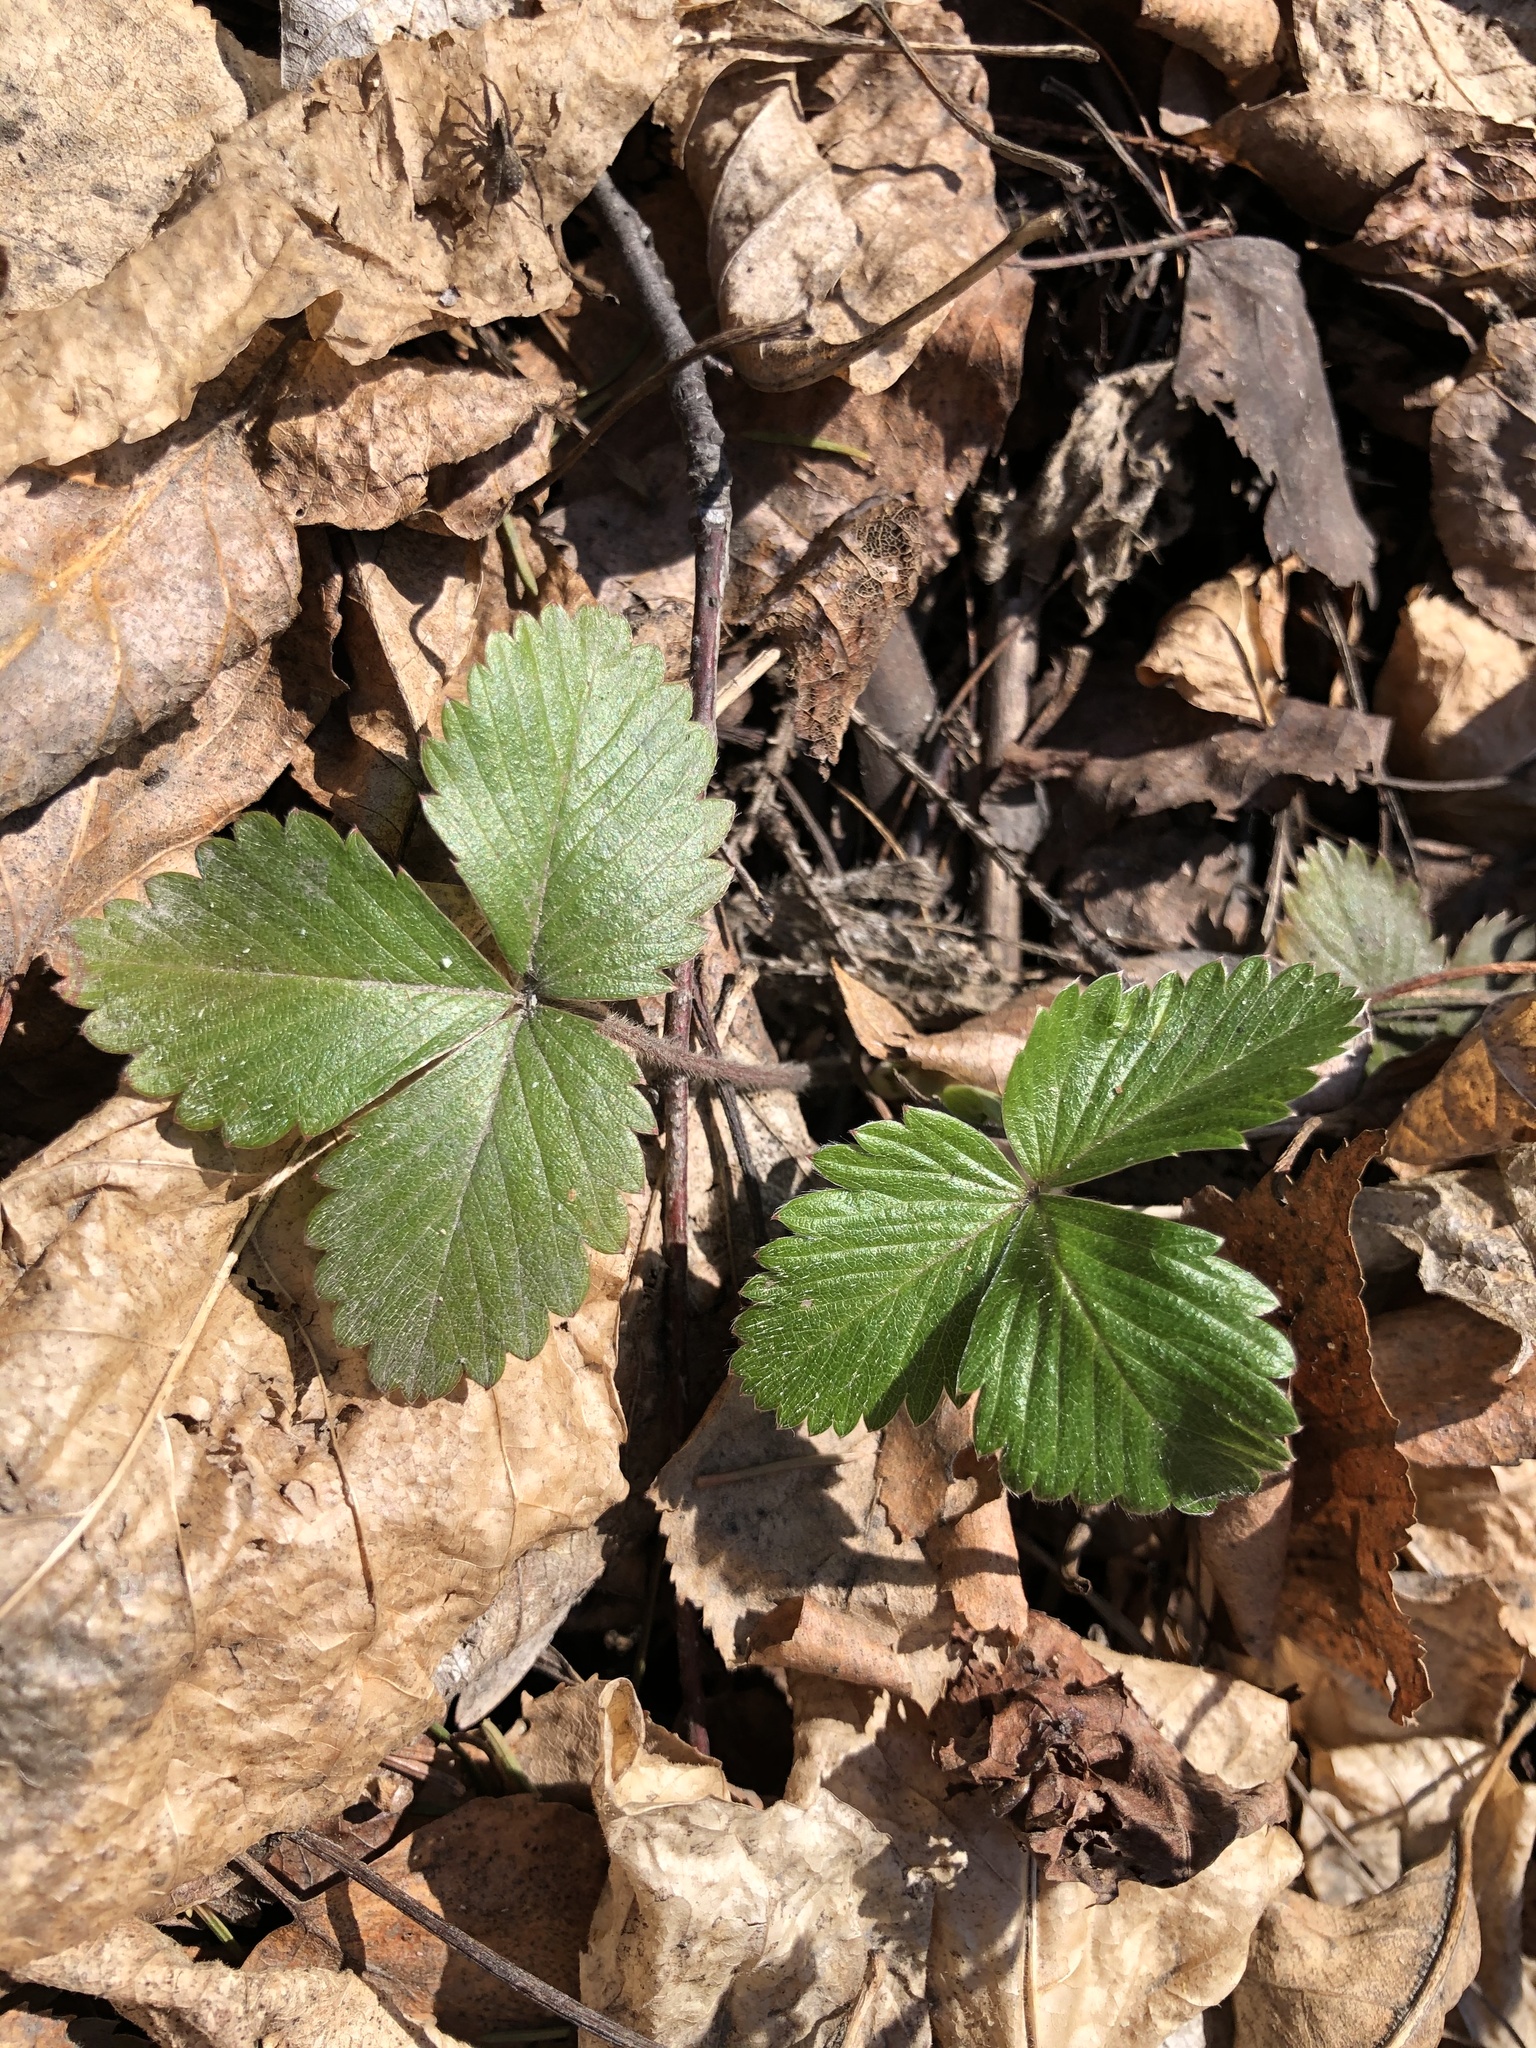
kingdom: Plantae
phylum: Tracheophyta
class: Magnoliopsida
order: Rosales
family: Rosaceae
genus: Fragaria
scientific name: Fragaria vesca
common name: Wild strawberry
